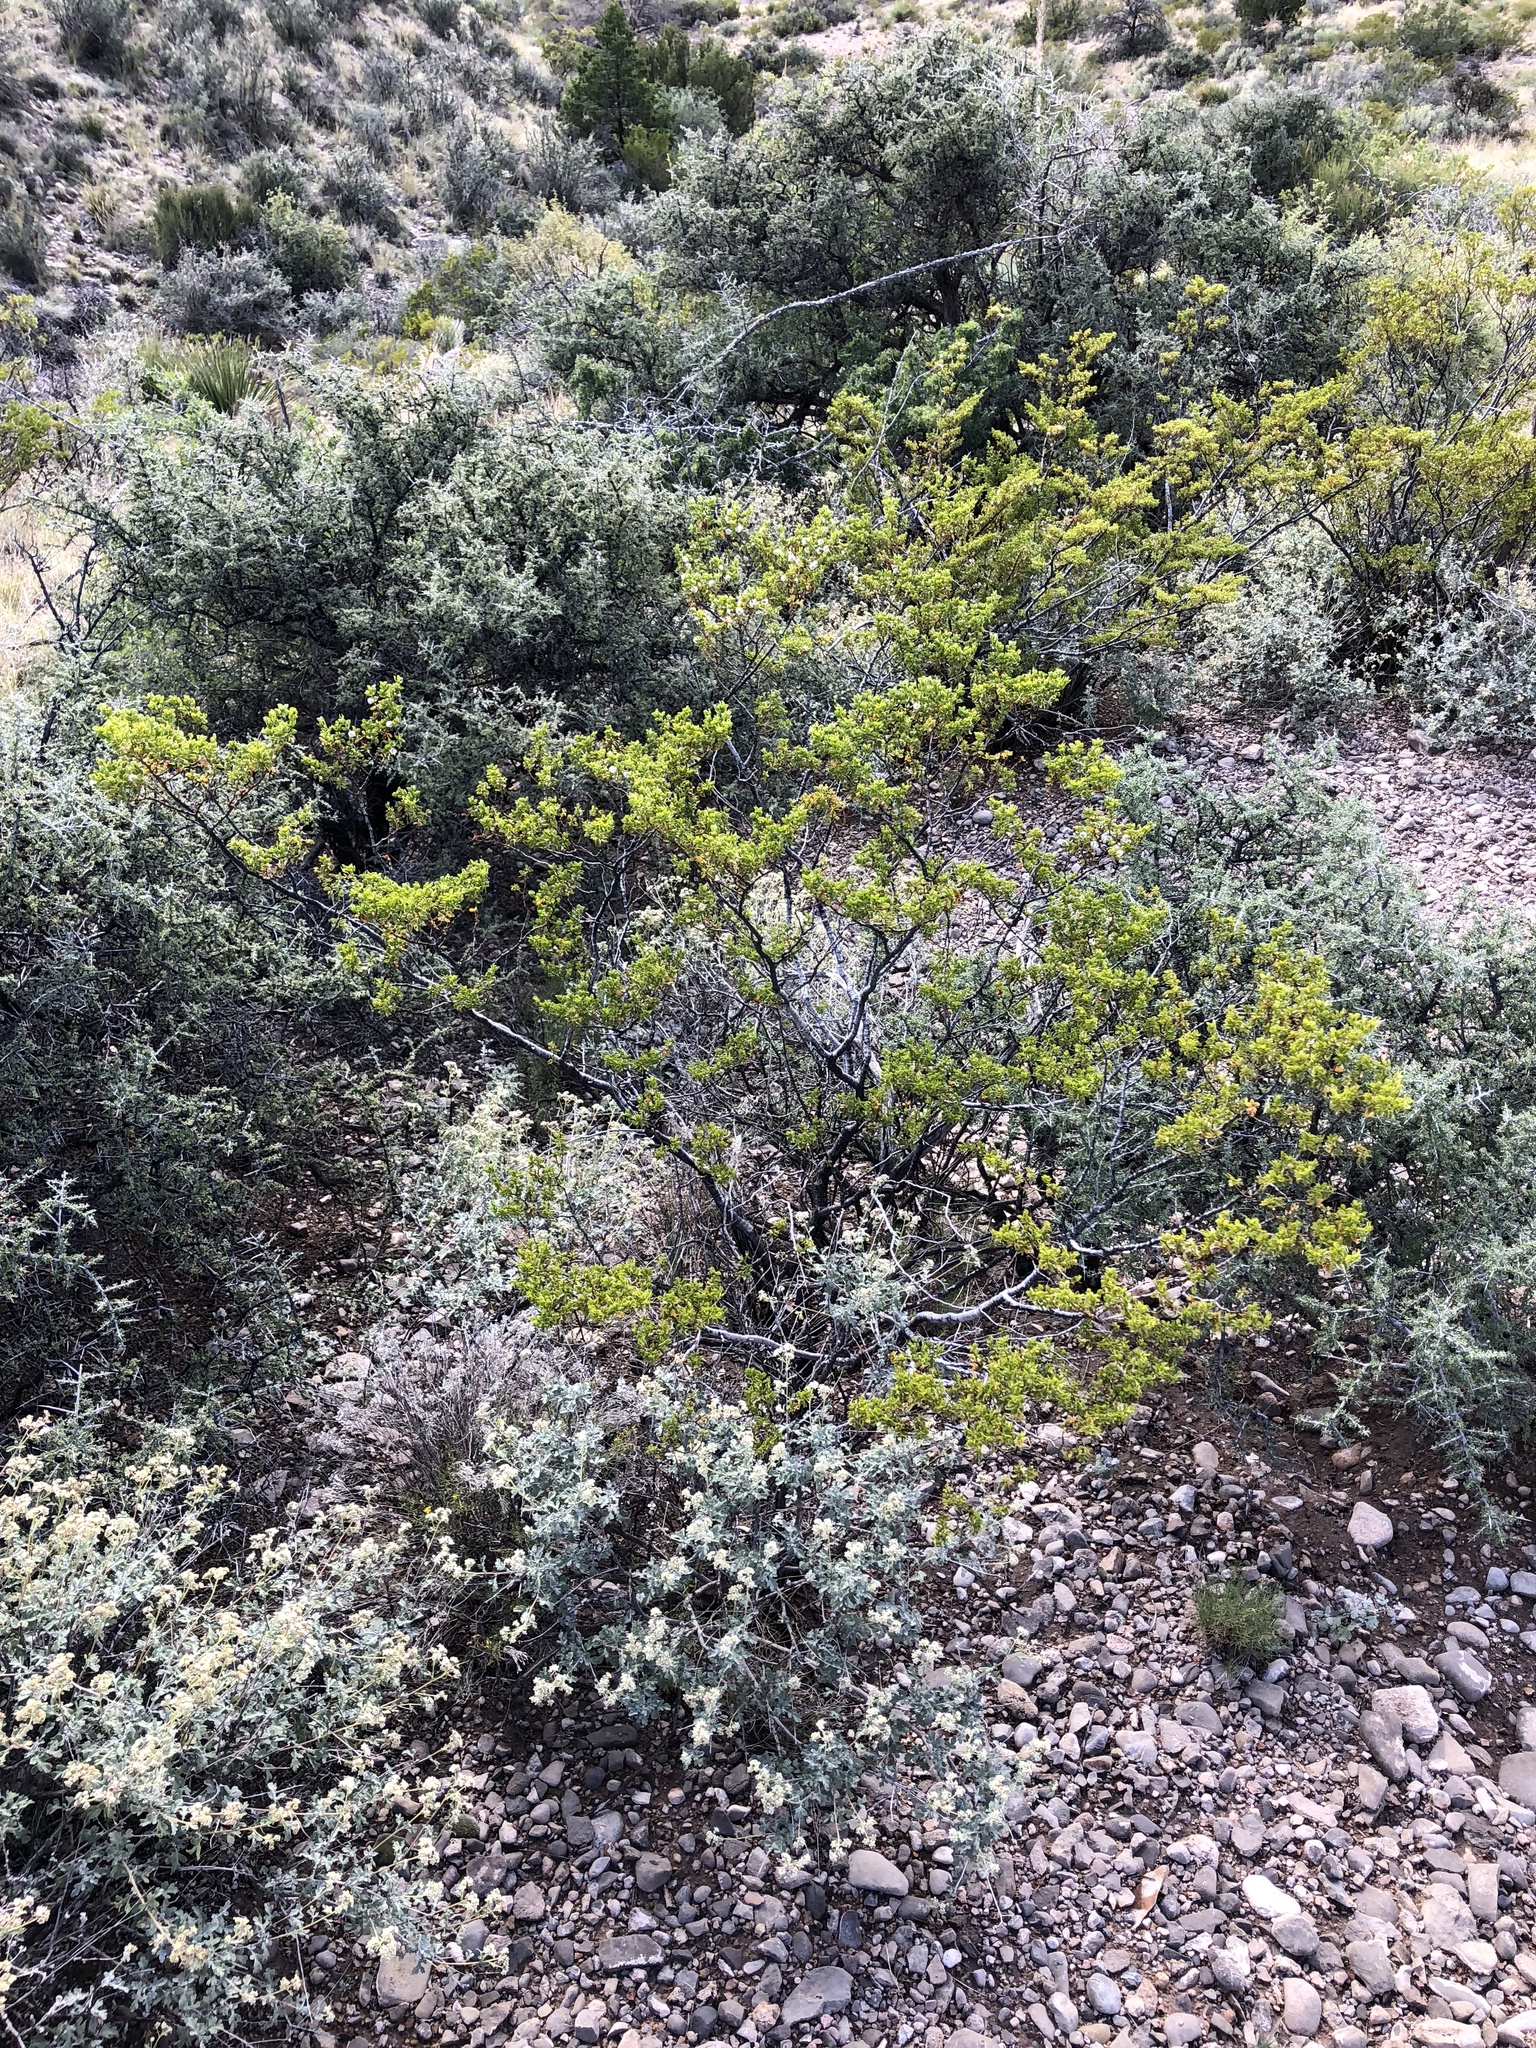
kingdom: Plantae
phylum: Tracheophyta
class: Magnoliopsida
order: Zygophyllales
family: Zygophyllaceae
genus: Larrea
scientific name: Larrea tridentata
